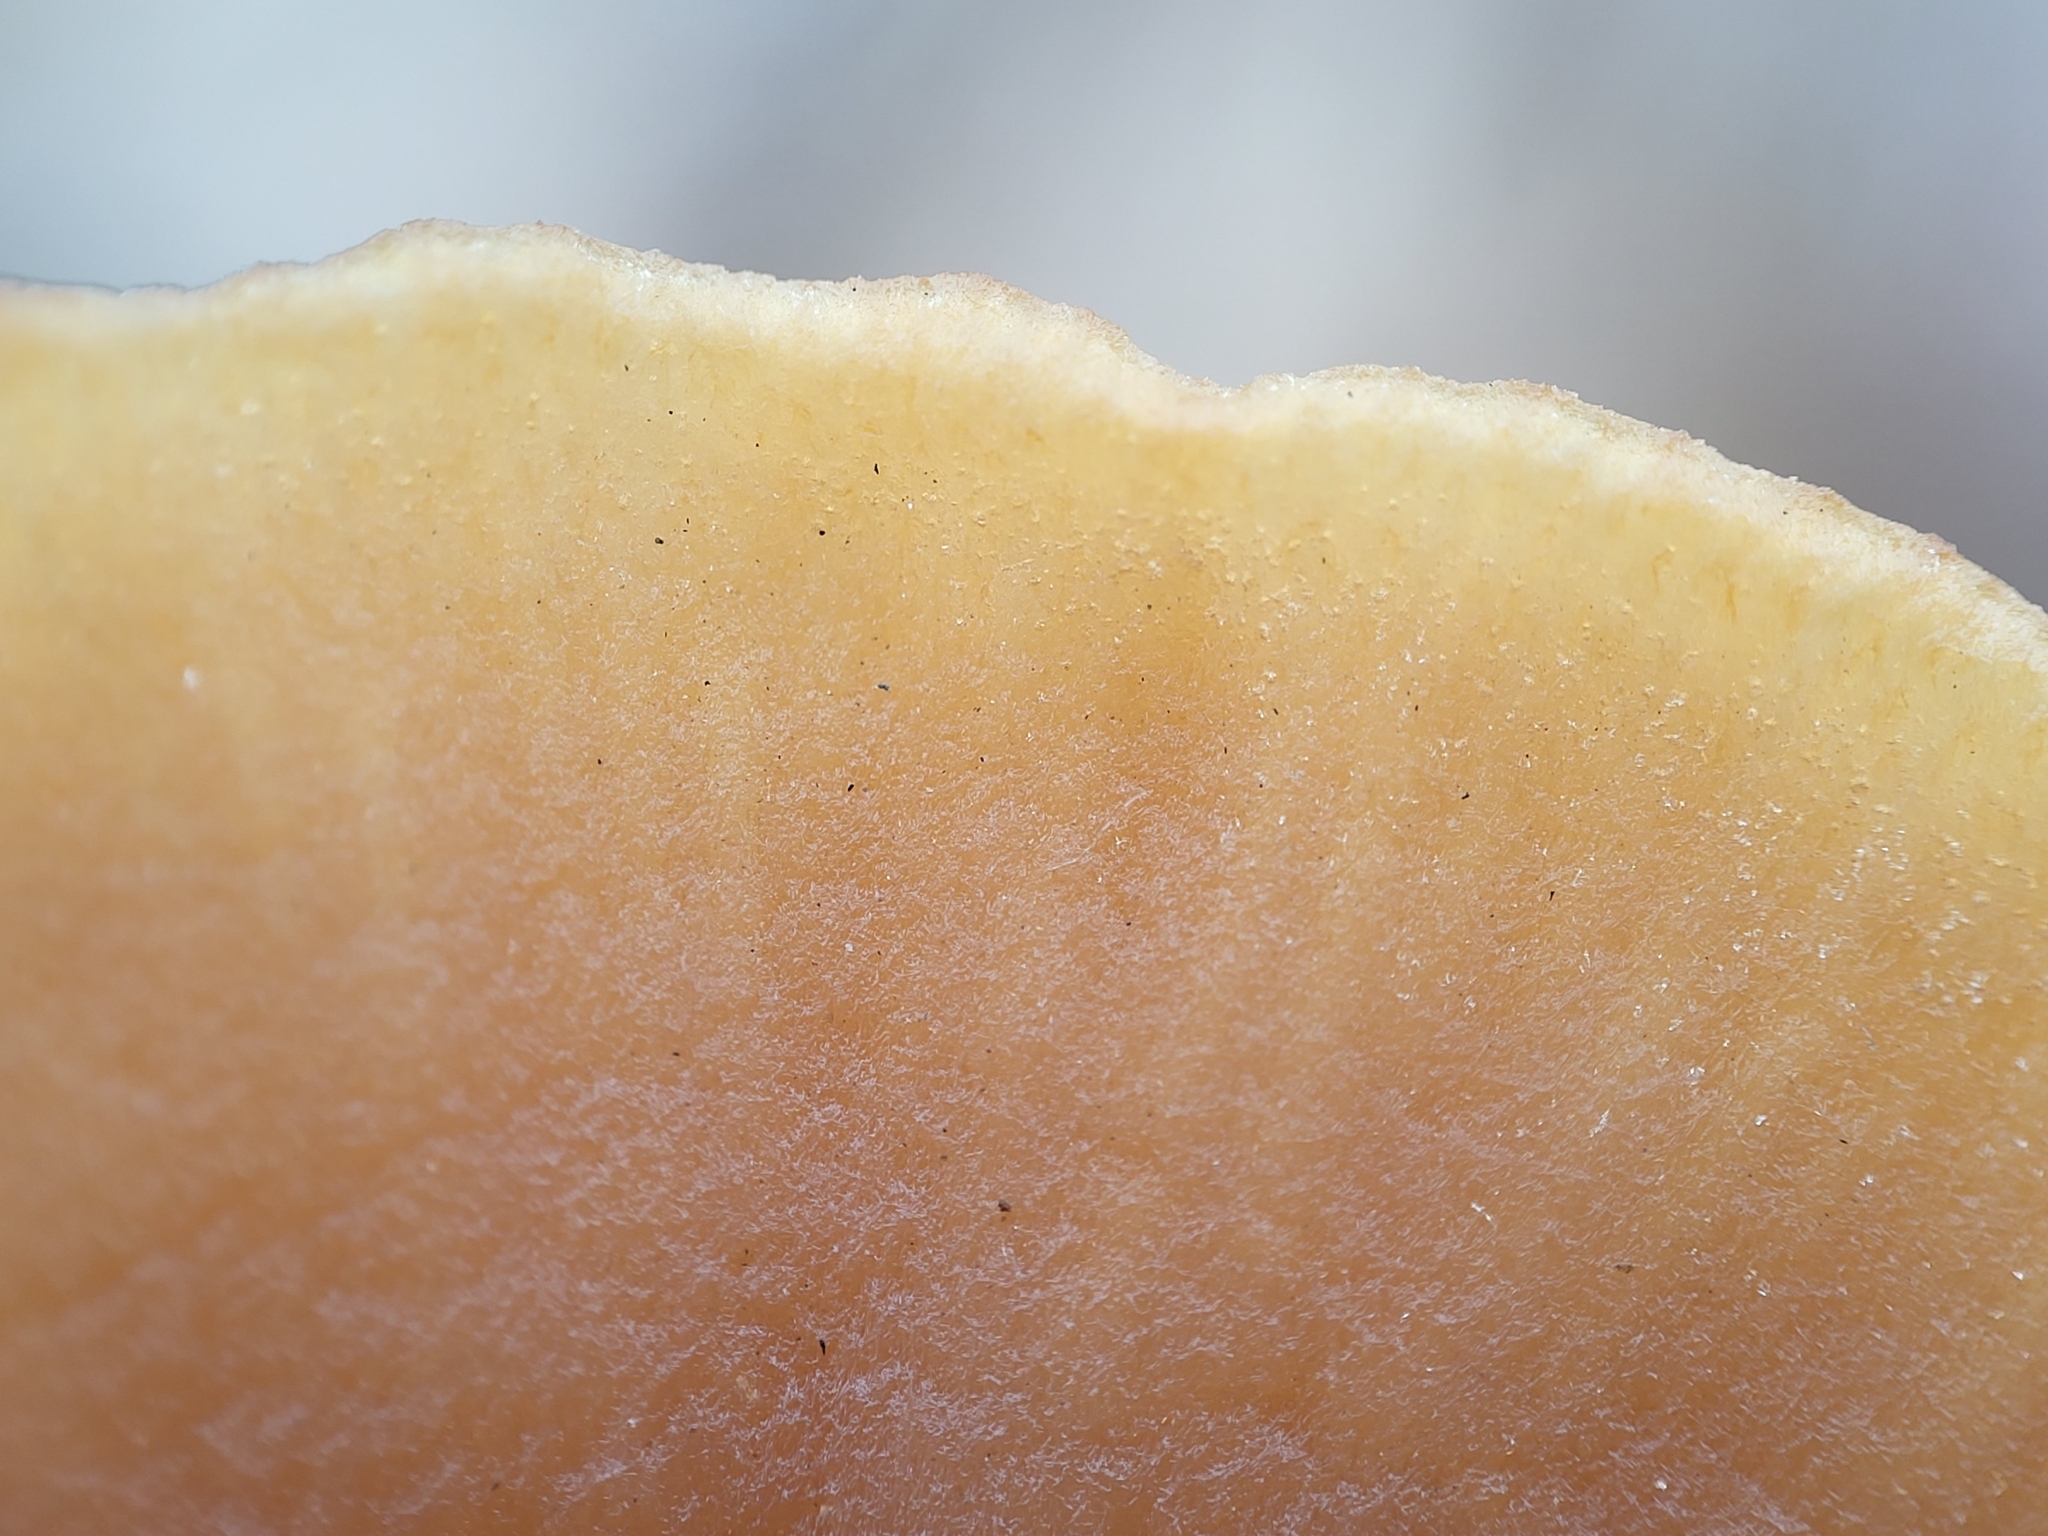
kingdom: Fungi
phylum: Basidiomycota
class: Agaricomycetes
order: Agaricales
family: Tubariaceae
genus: Tubaria
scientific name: Tubaria furfuracea
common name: Scurfy twiglet
